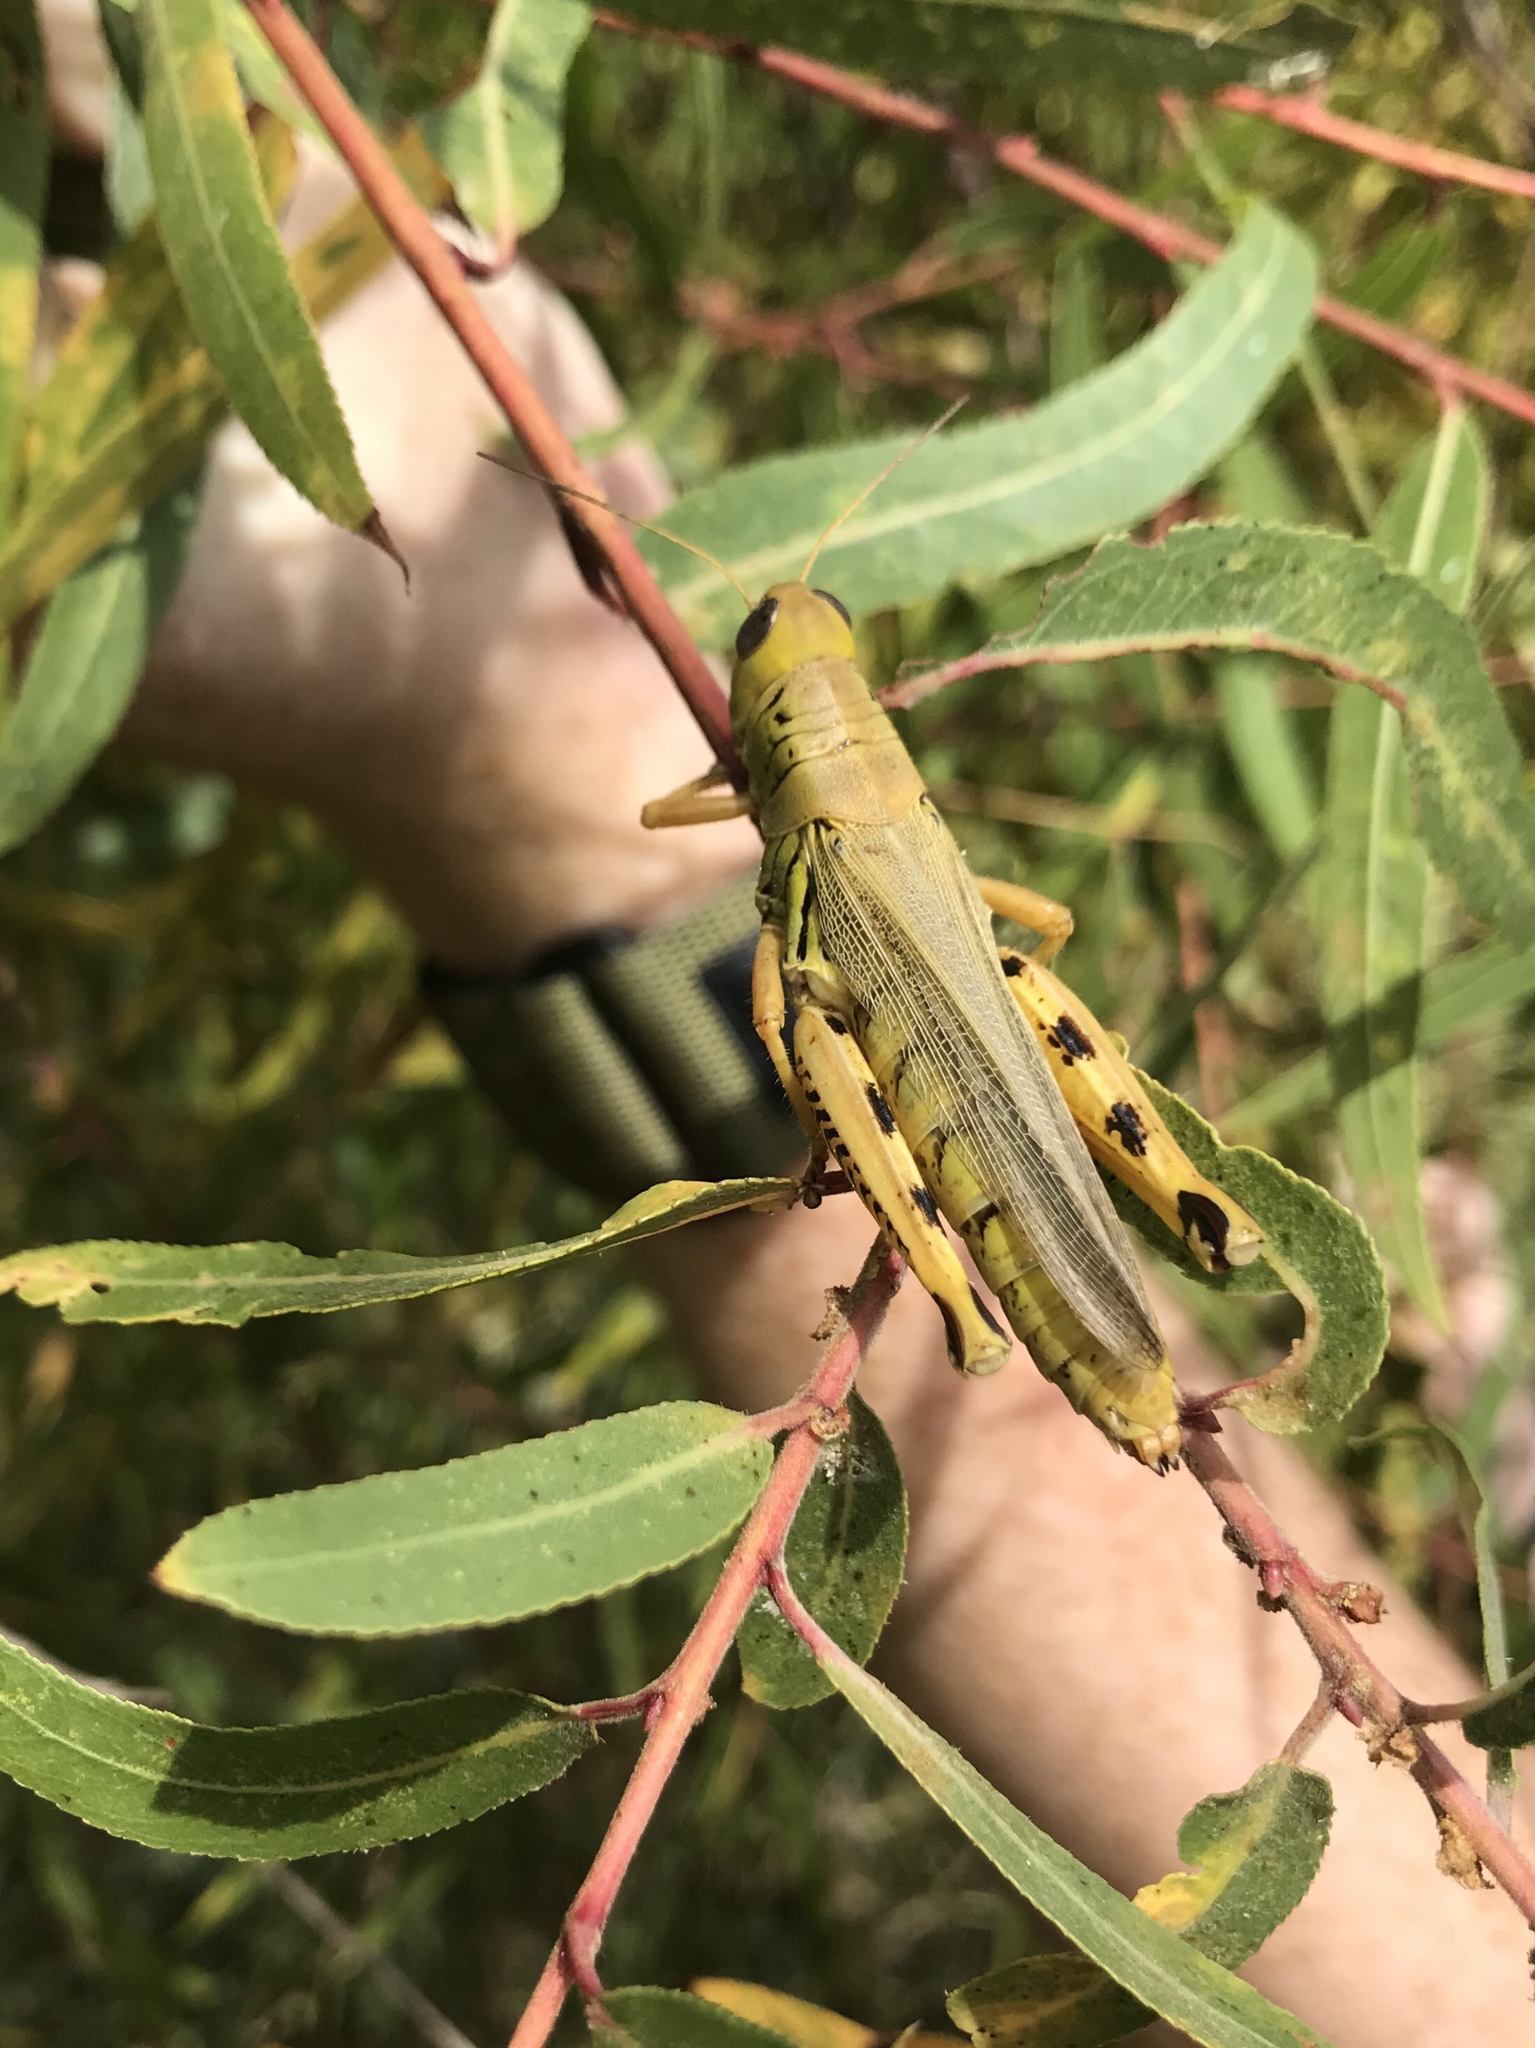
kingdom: Animalia
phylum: Arthropoda
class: Insecta
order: Orthoptera
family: Acrididae
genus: Melanoplus
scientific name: Melanoplus differentialis
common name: Differential grasshopper
